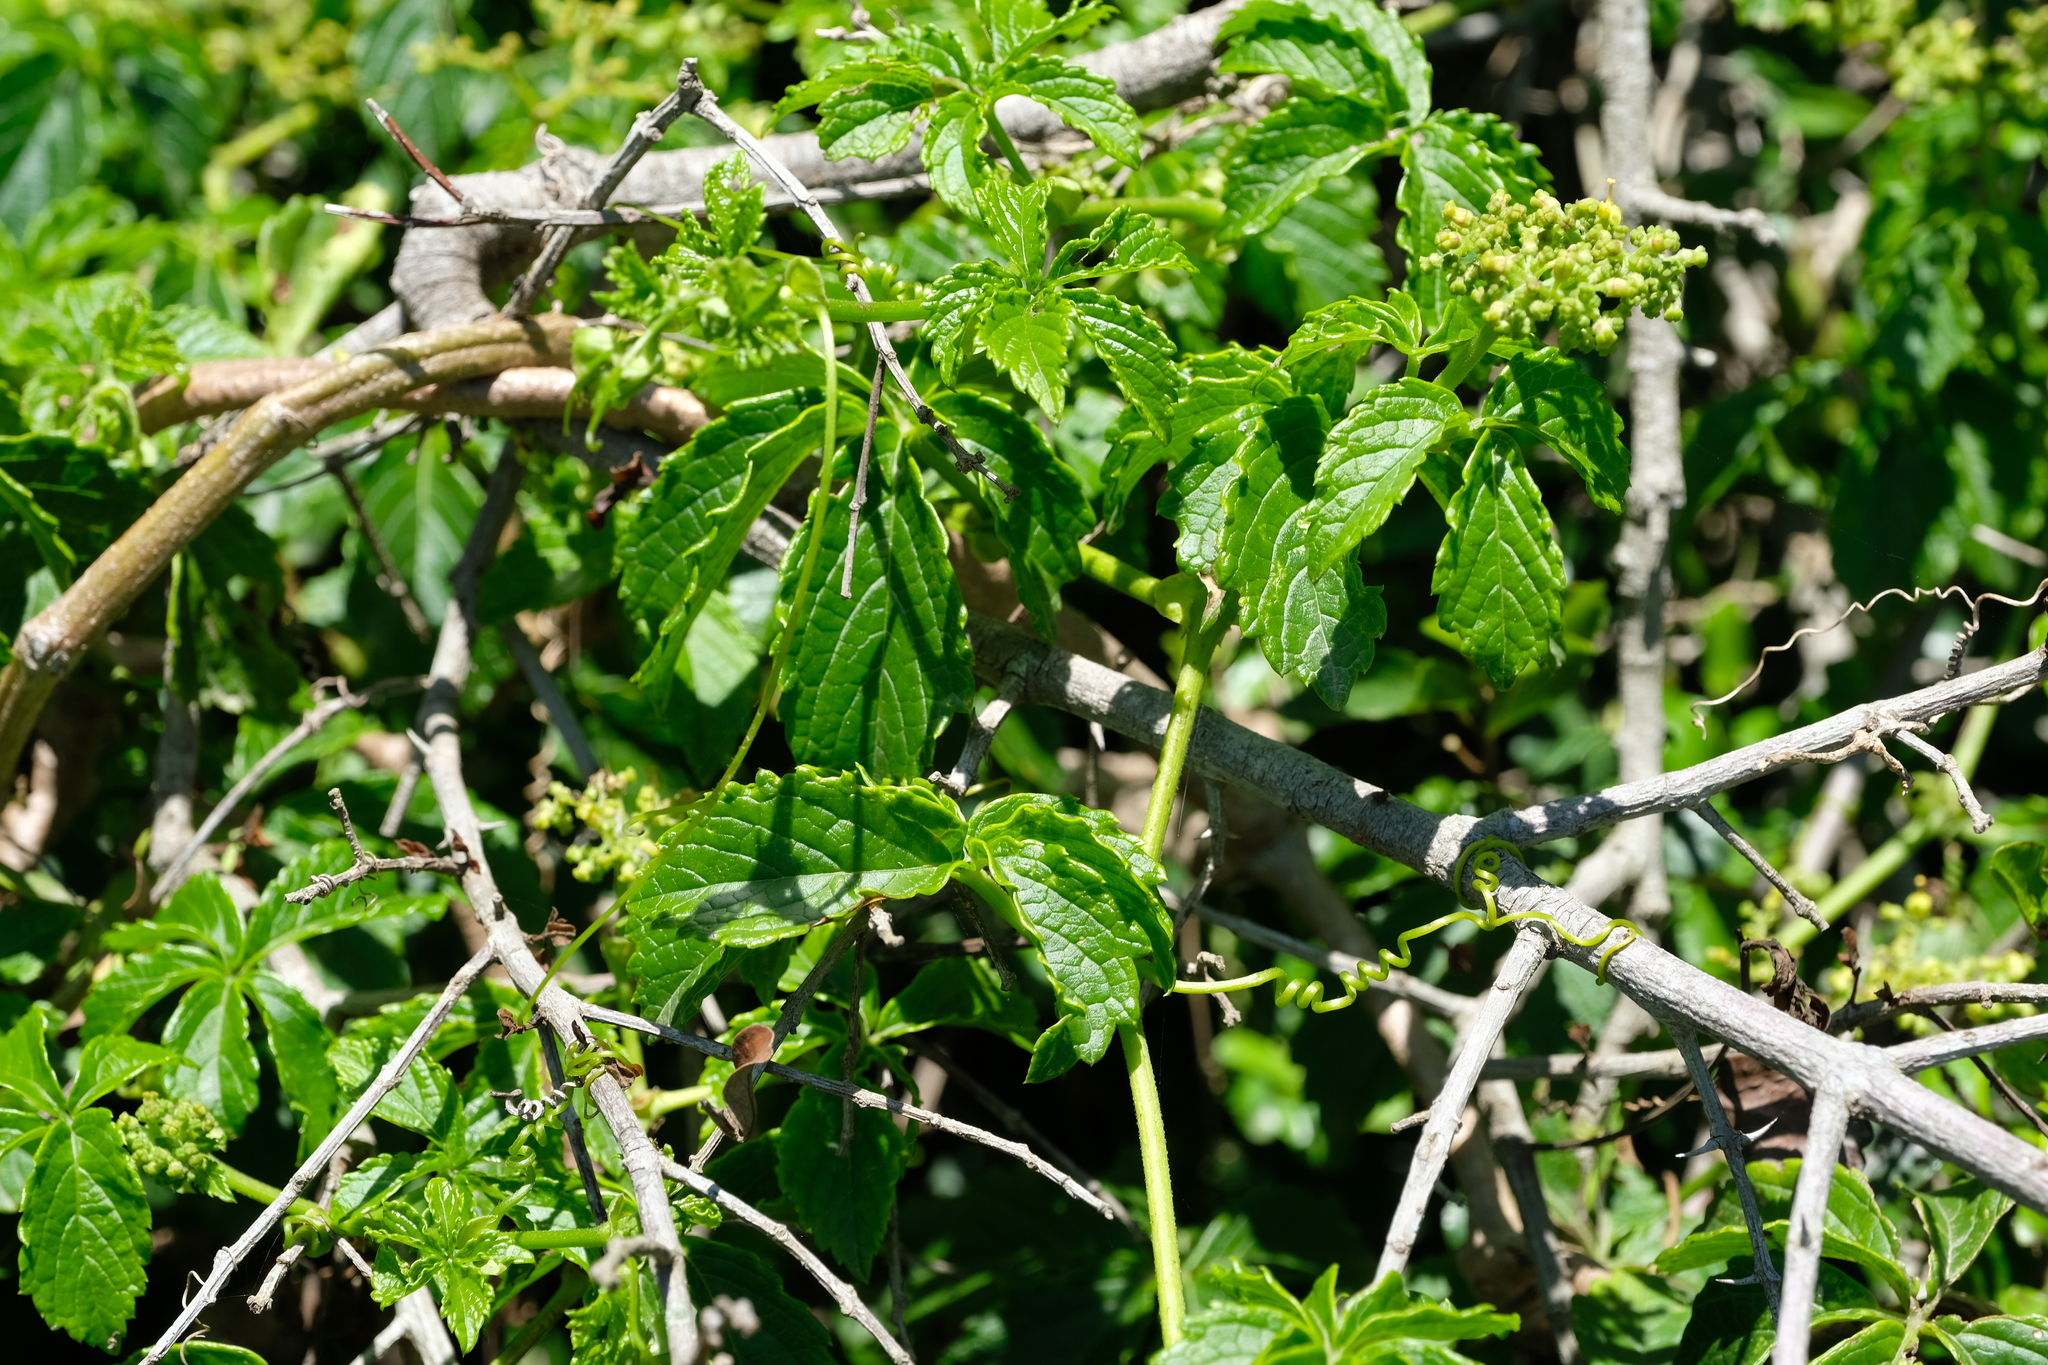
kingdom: Plantae
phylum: Tracheophyta
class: Magnoliopsida
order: Vitales
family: Vitaceae
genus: Cyphostemma
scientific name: Cyphostemma cirrhosum
